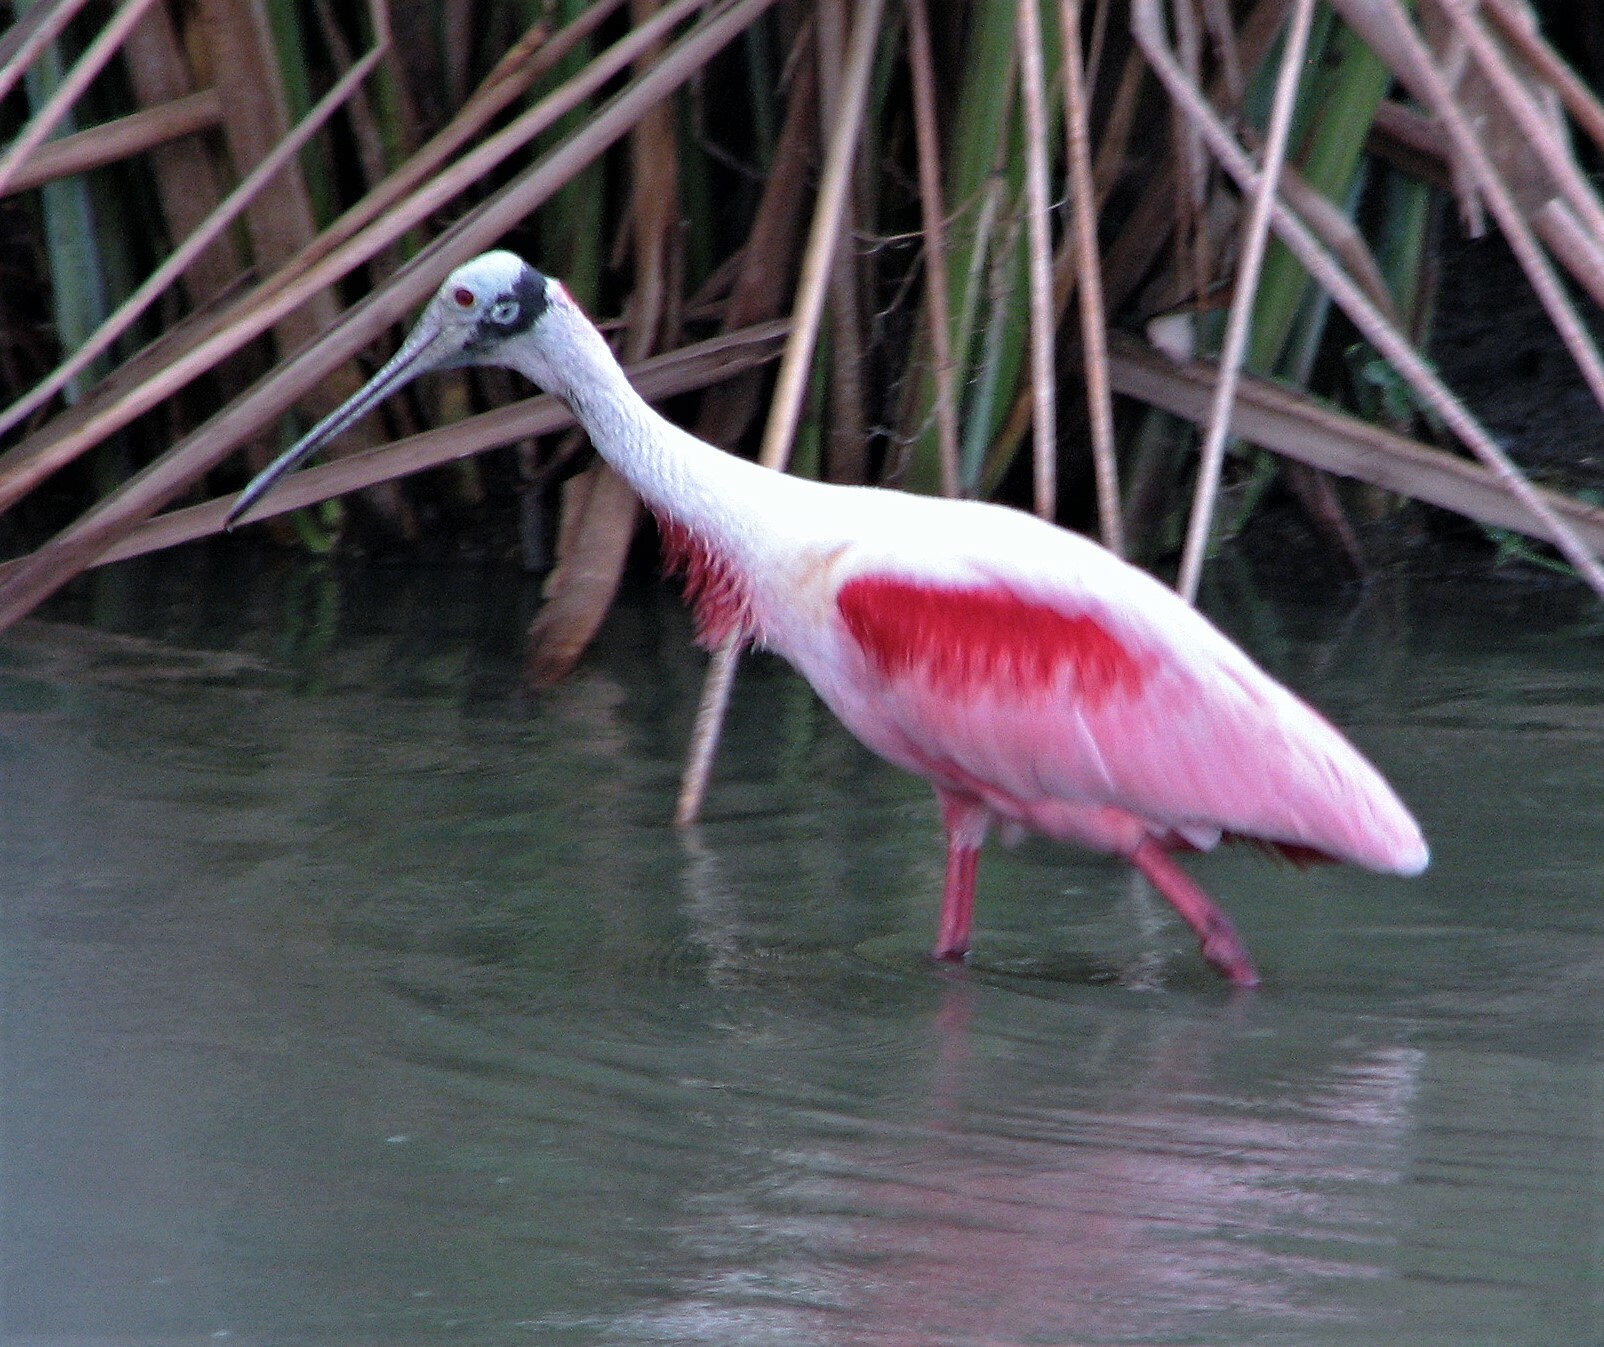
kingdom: Animalia
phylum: Chordata
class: Aves
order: Pelecaniformes
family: Threskiornithidae
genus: Platalea
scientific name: Platalea ajaja
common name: Roseate spoonbill
